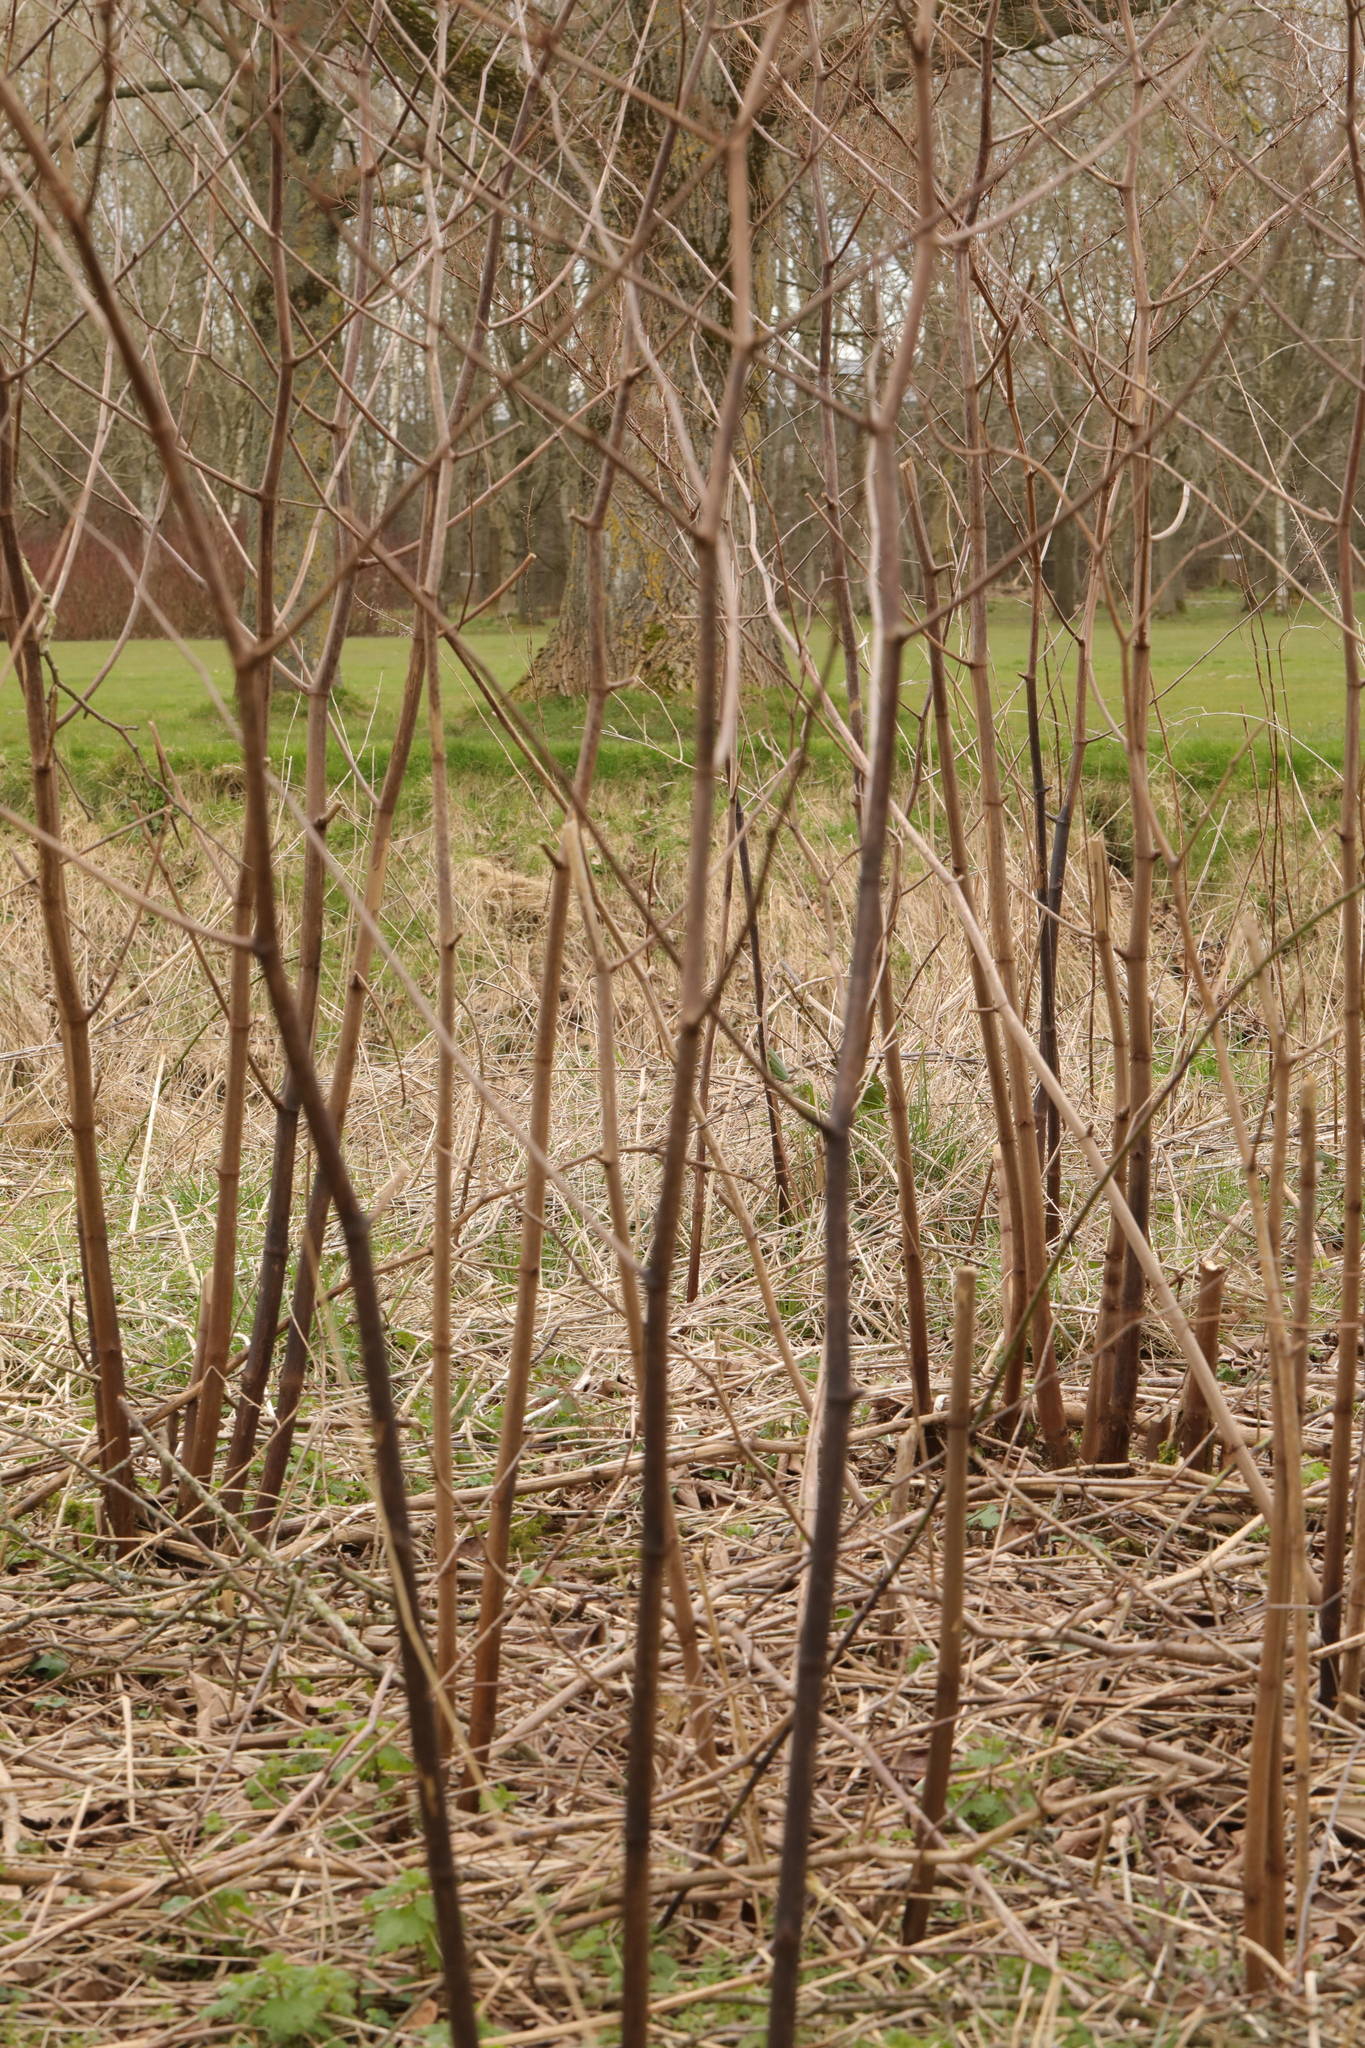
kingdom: Plantae
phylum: Tracheophyta
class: Magnoliopsida
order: Caryophyllales
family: Polygonaceae
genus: Reynoutria
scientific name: Reynoutria japonica
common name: Japanese knotweed
